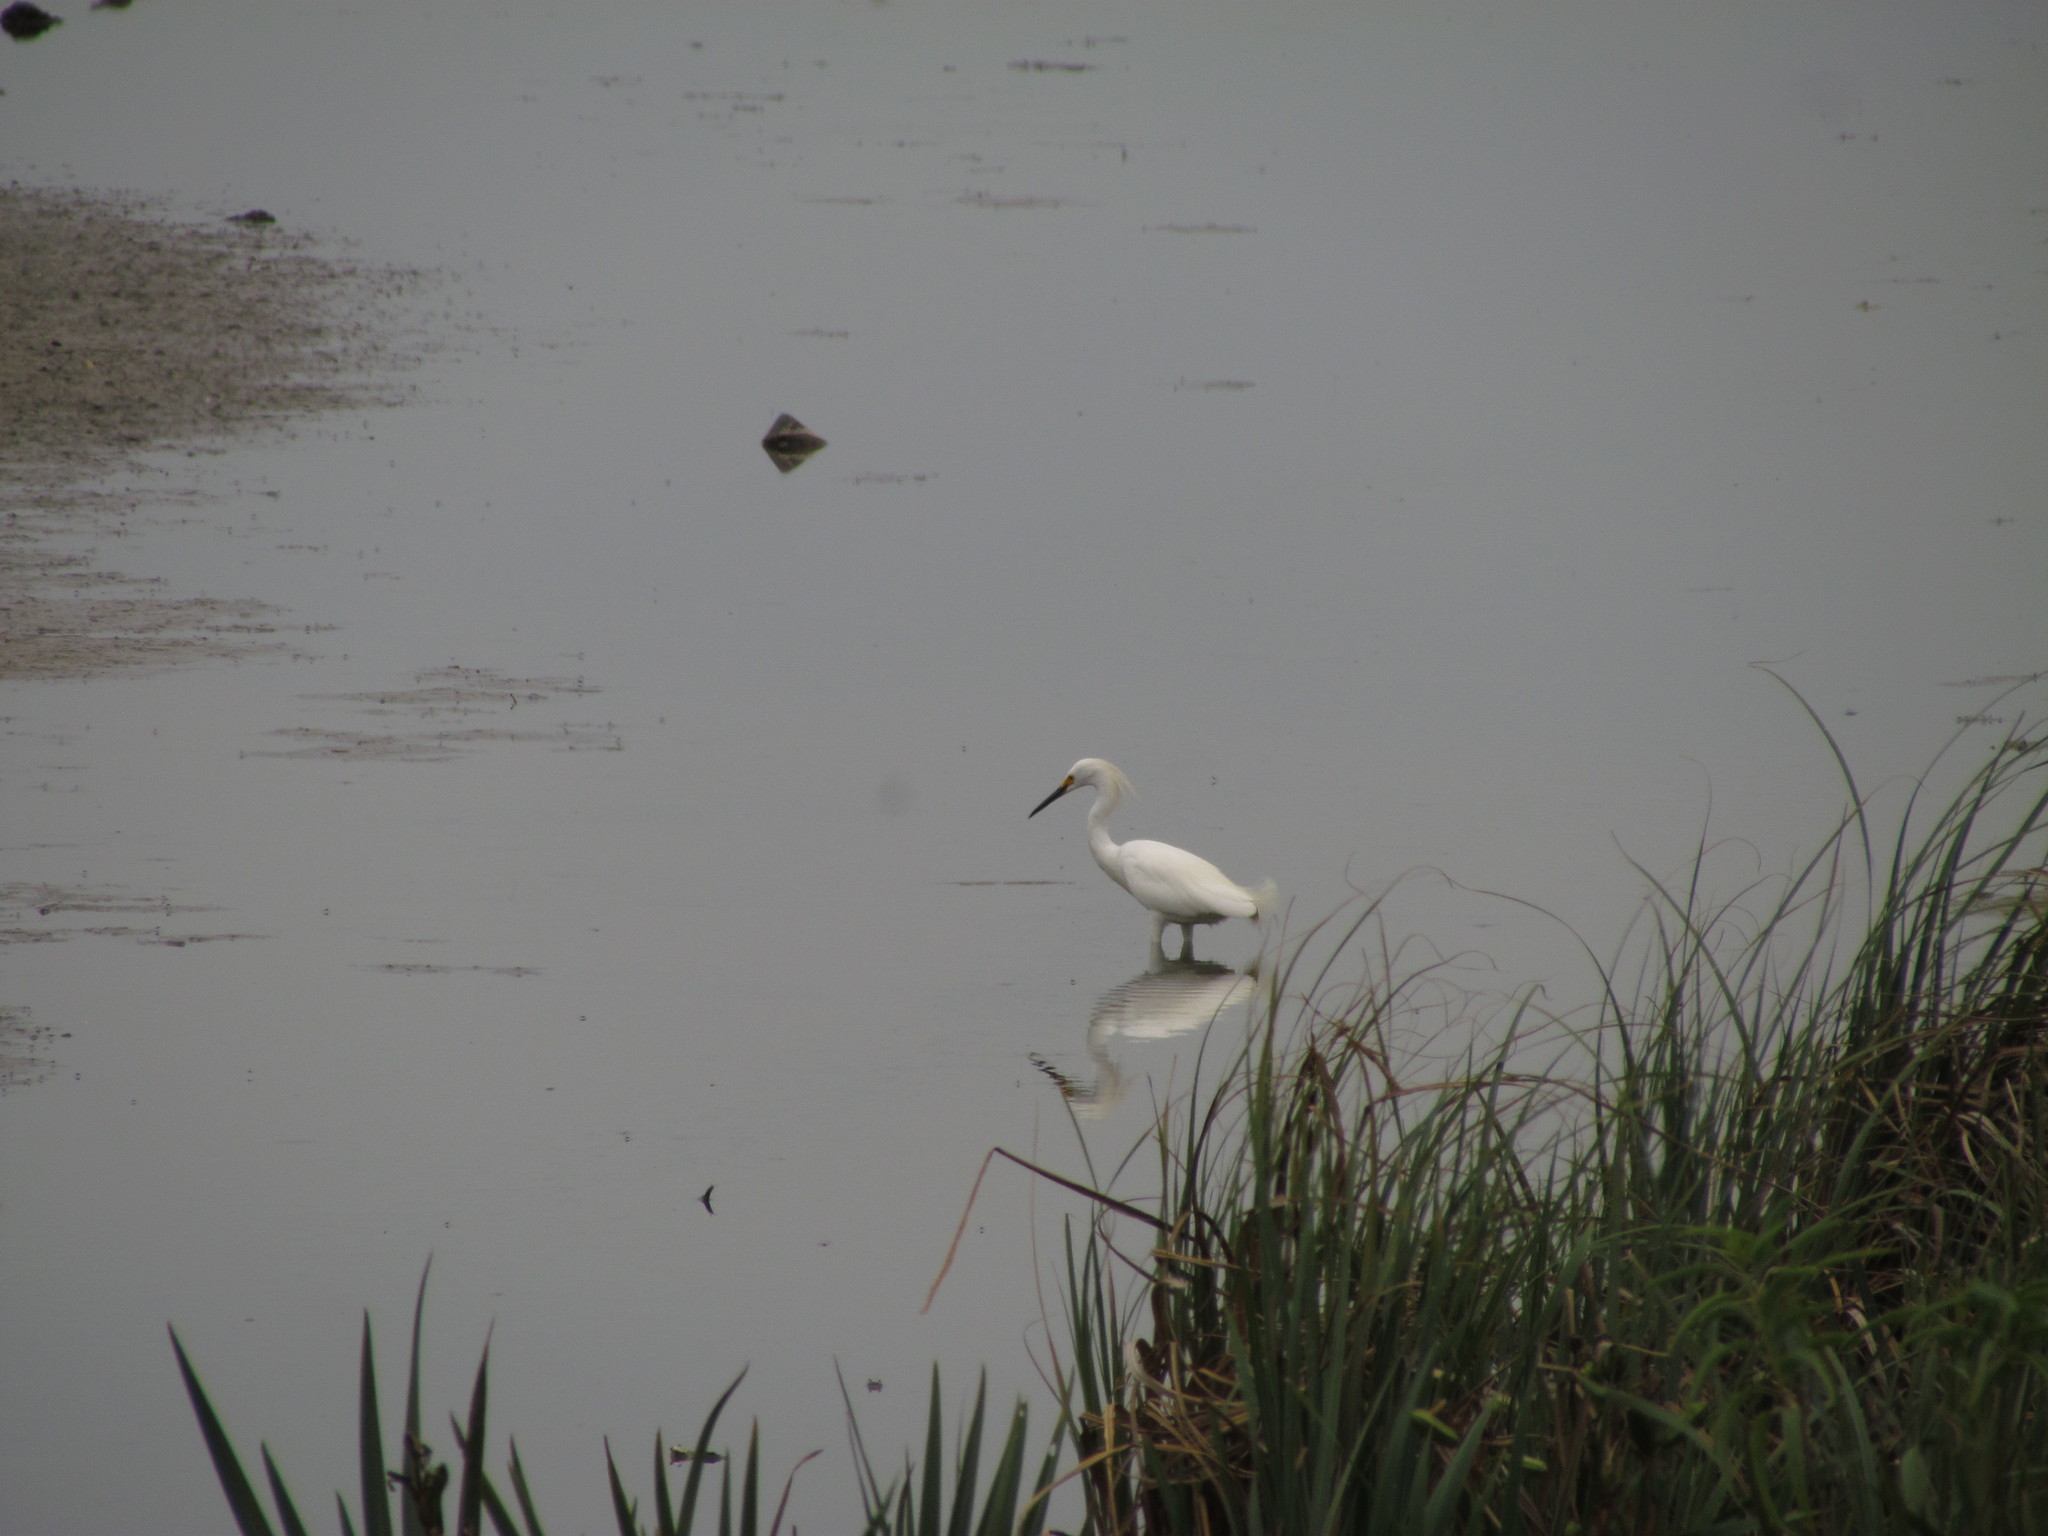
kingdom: Animalia
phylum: Chordata
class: Aves
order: Pelecaniformes
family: Ardeidae
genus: Egretta
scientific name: Egretta thula
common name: Snowy egret
